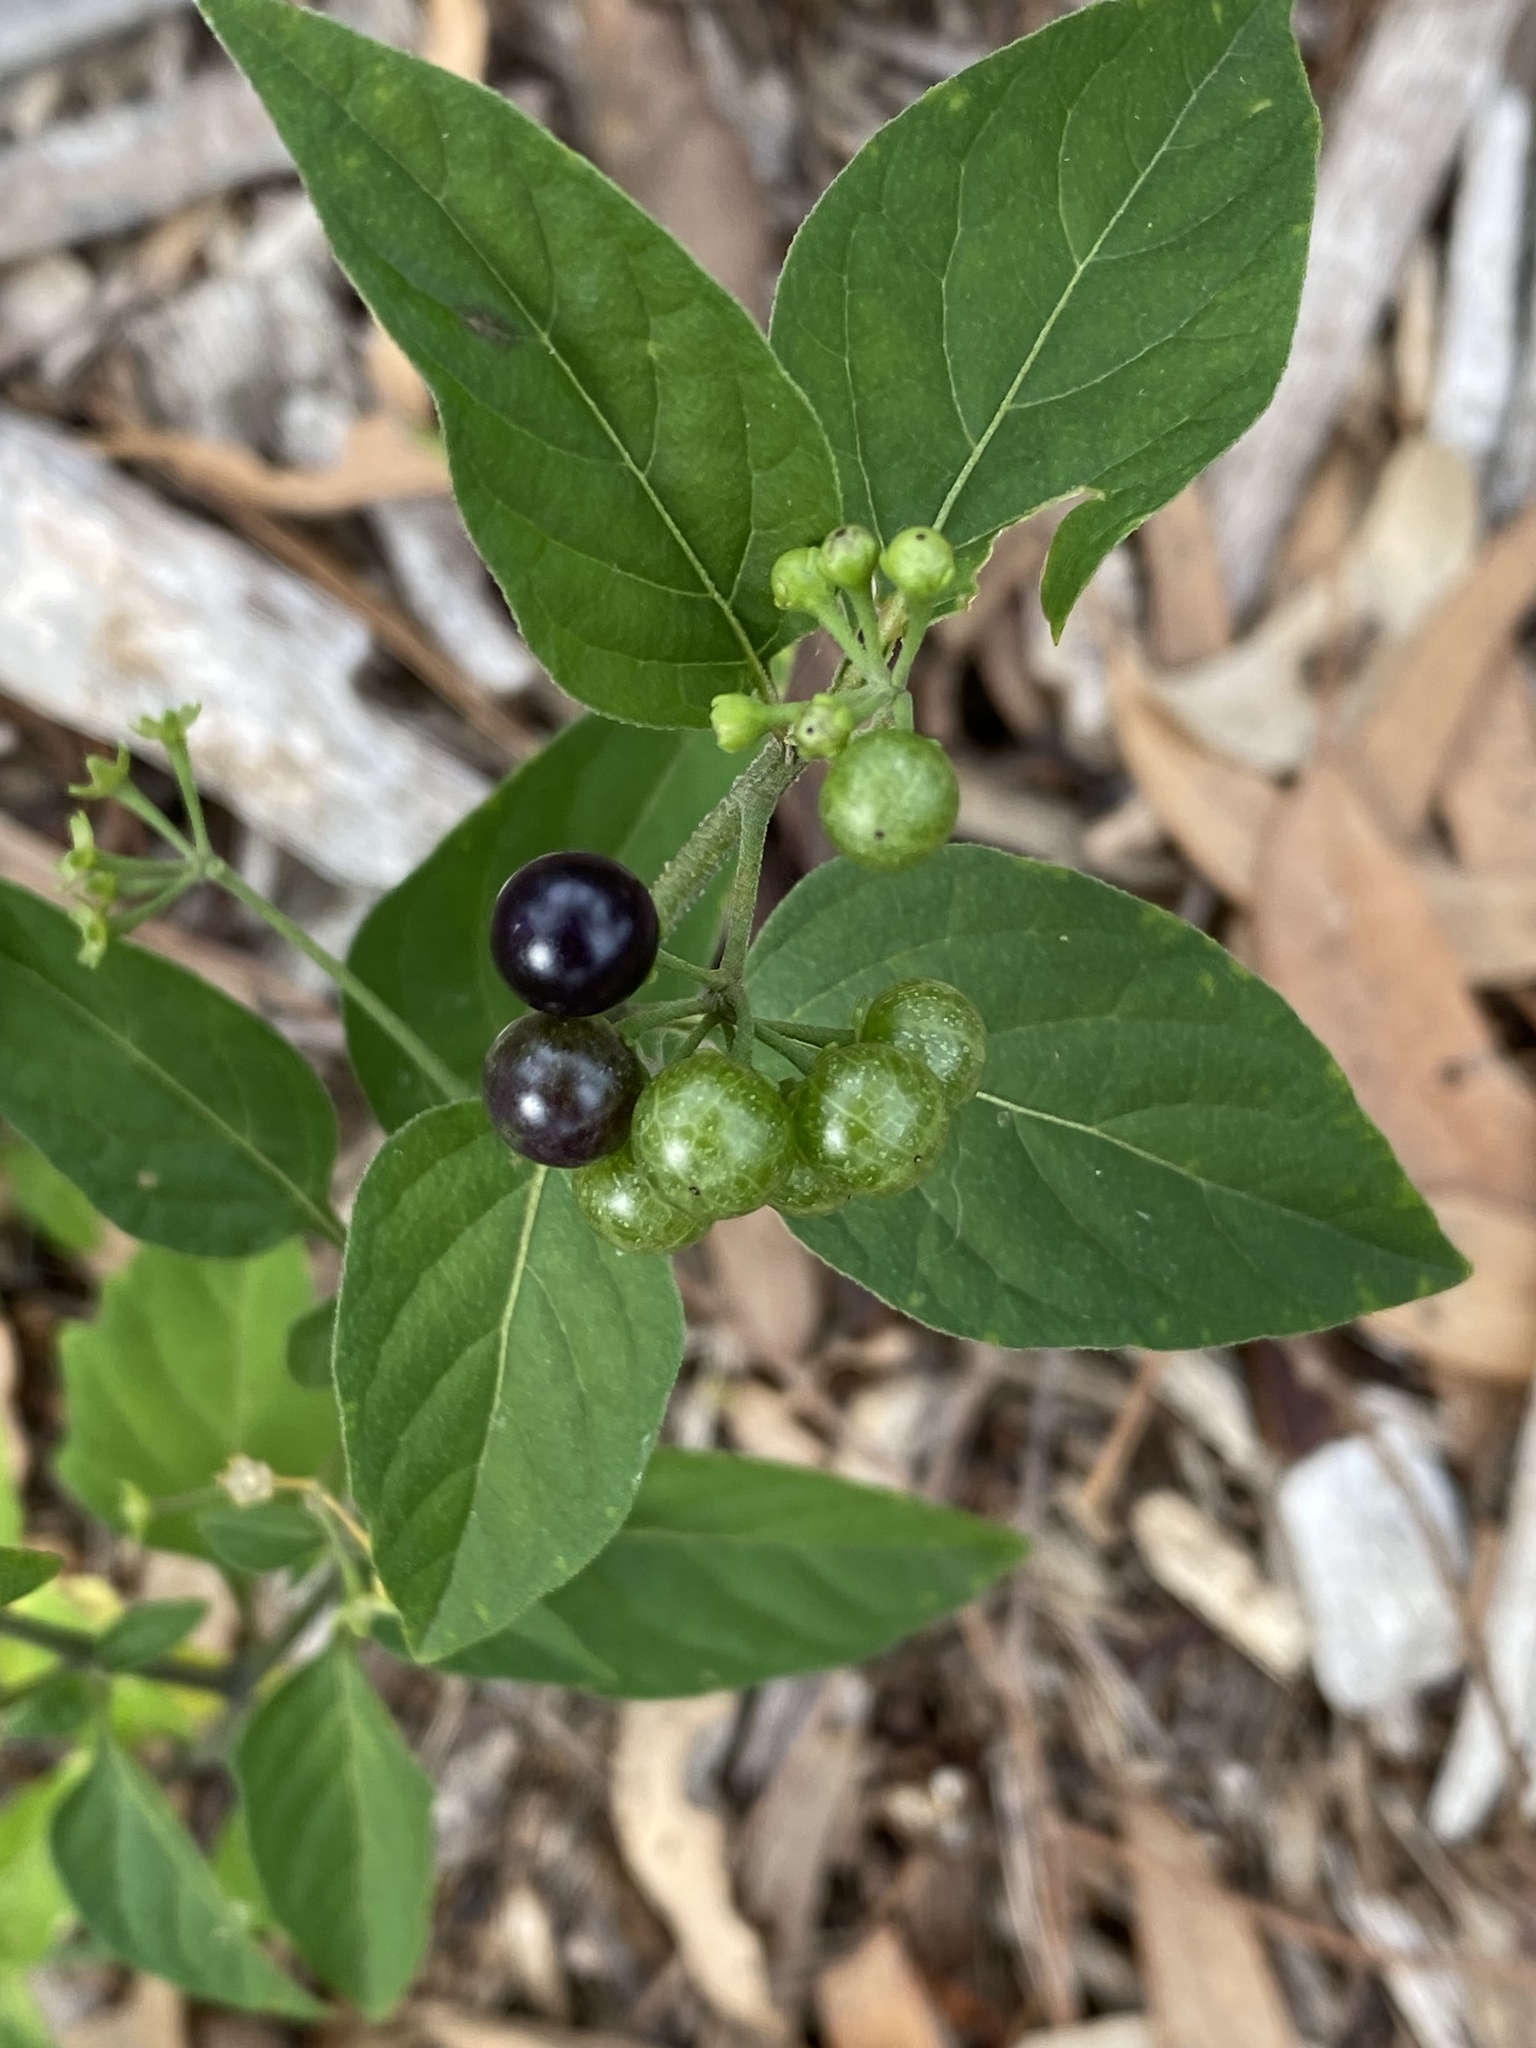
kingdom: Plantae
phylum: Tracheophyta
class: Magnoliopsida
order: Solanales
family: Solanaceae
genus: Solanum
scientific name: Solanum americanum
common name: American black nightshade
